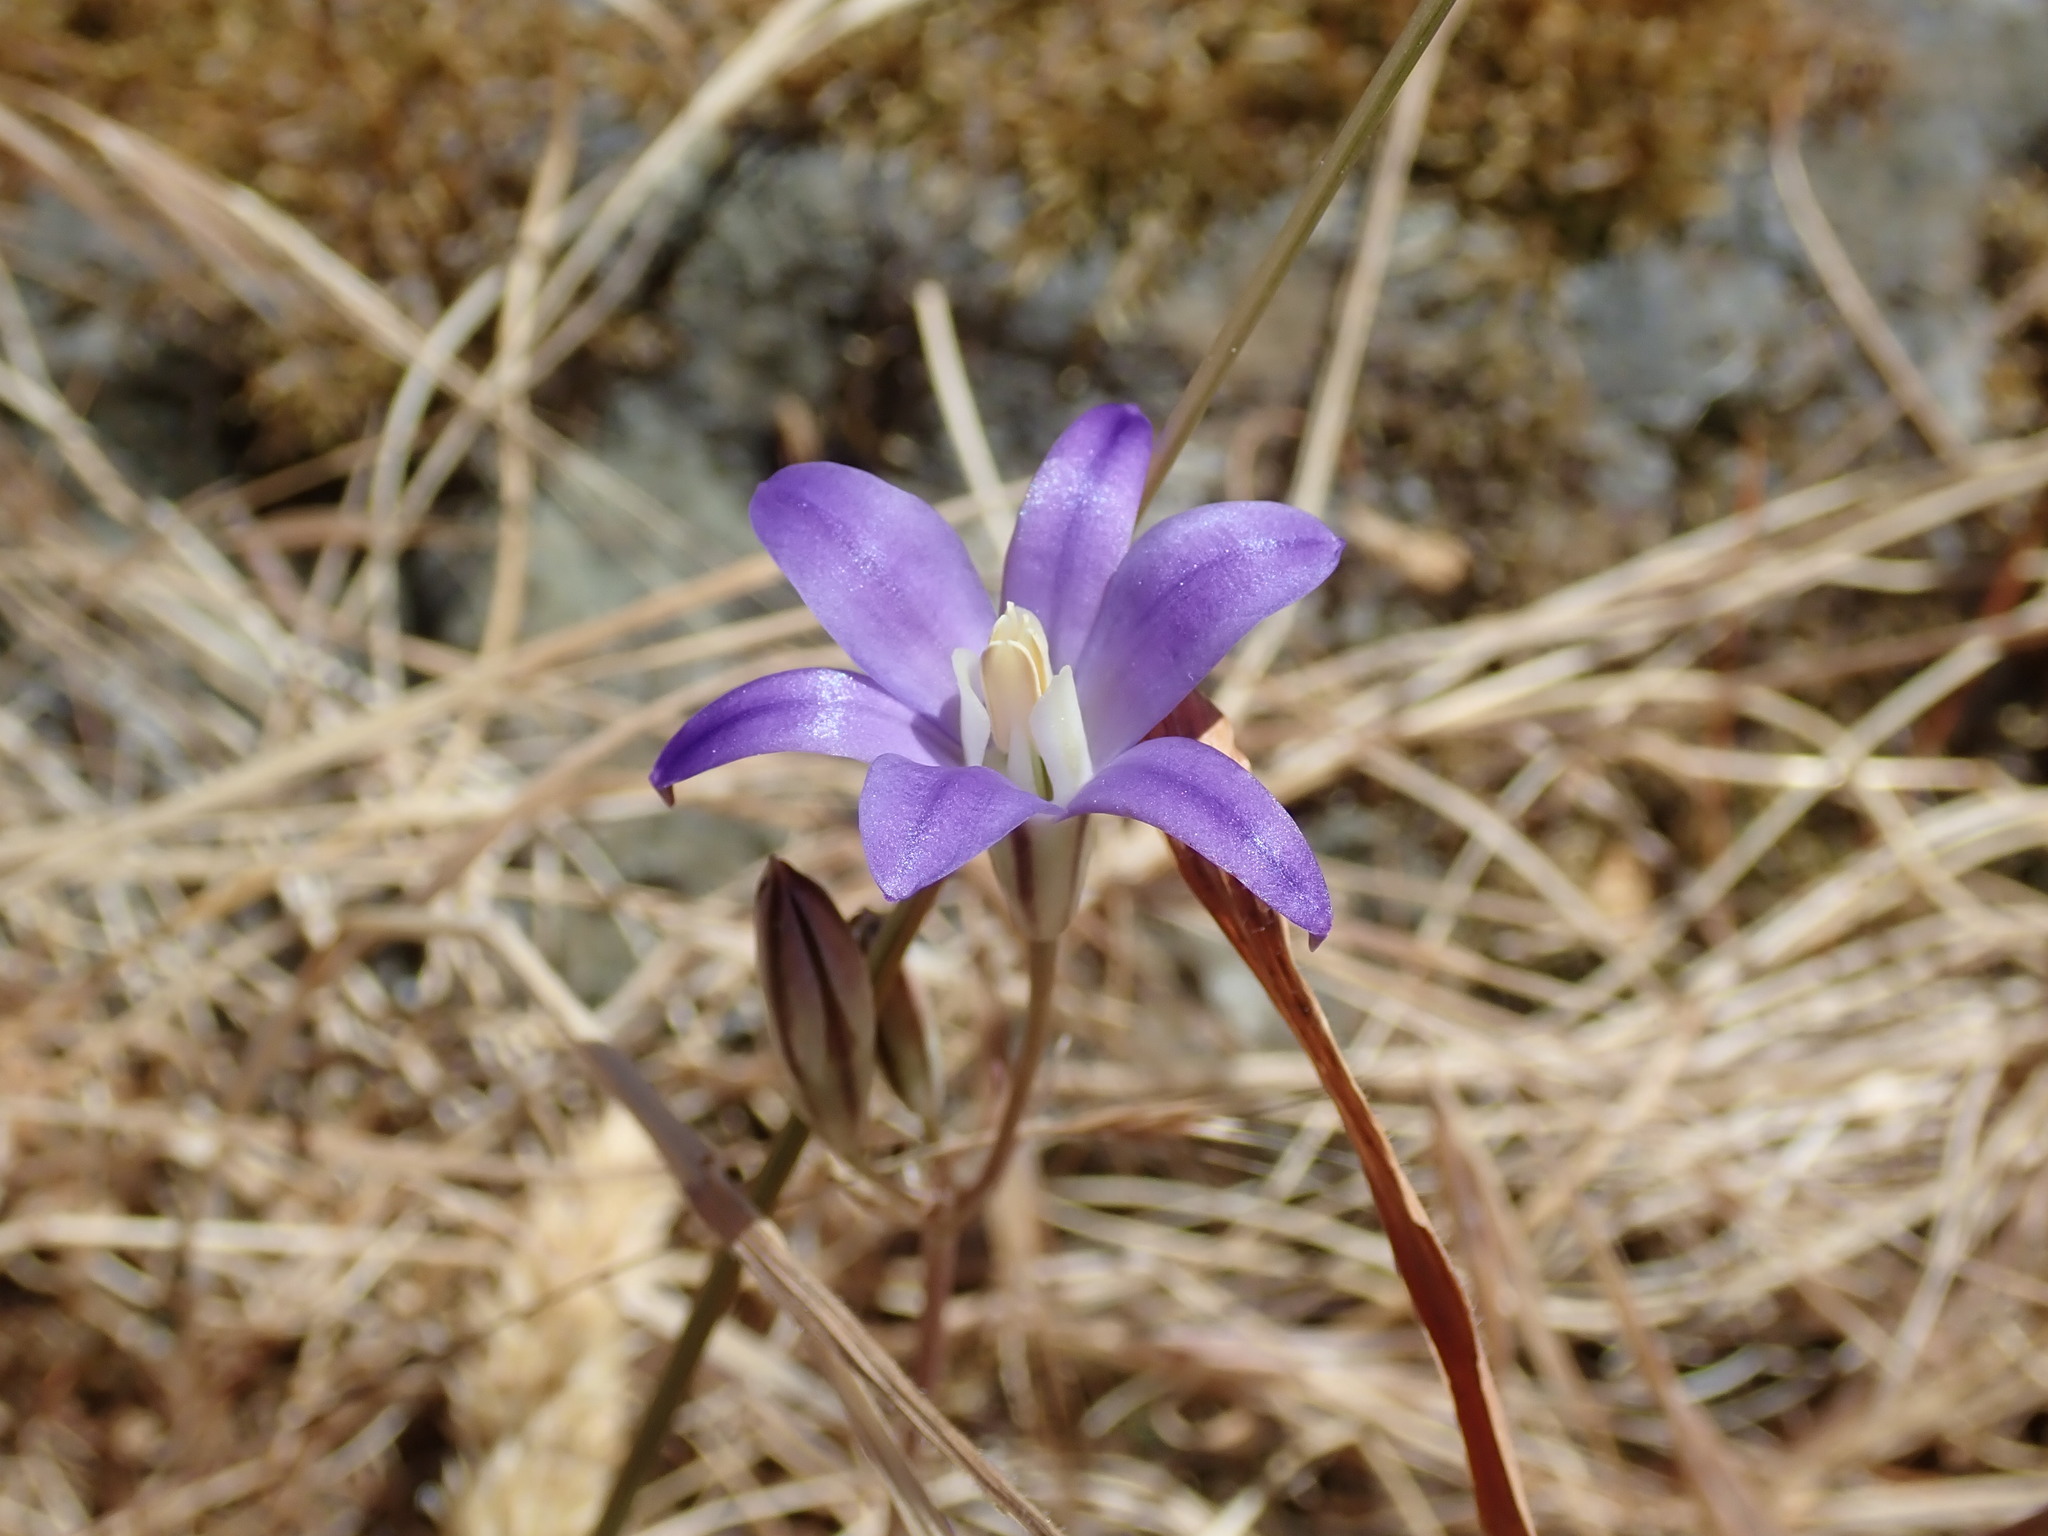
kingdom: Plantae
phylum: Tracheophyta
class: Liliopsida
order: Asparagales
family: Asparagaceae
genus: Brodiaea
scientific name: Brodiaea coronaria
